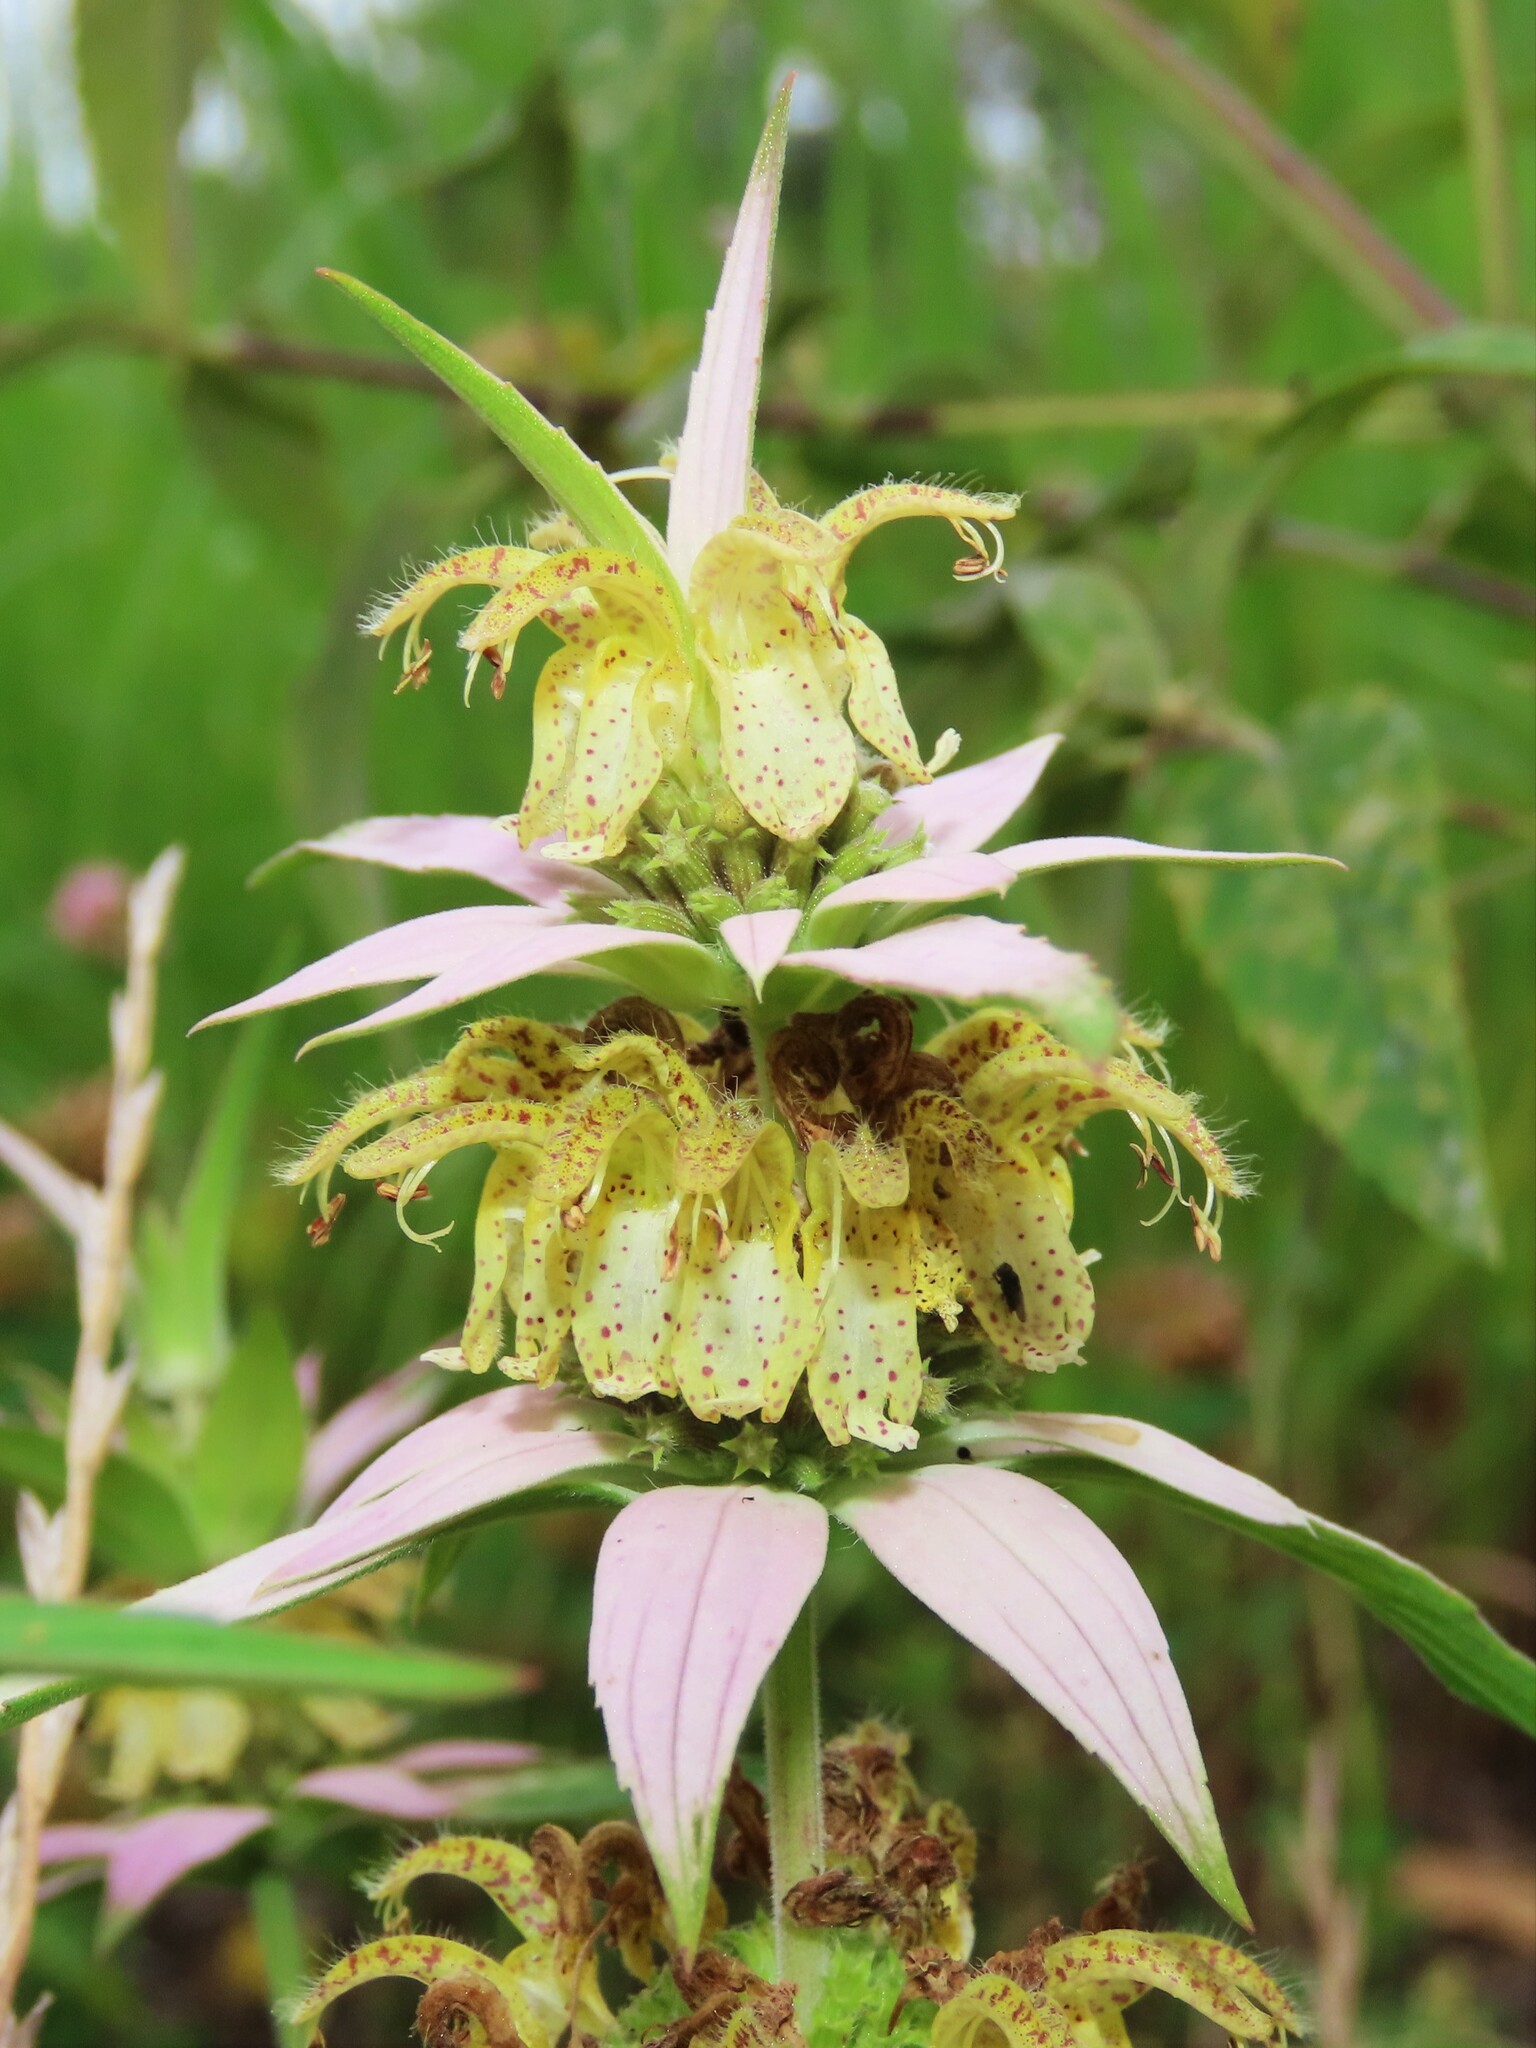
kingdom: Plantae
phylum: Tracheophyta
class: Magnoliopsida
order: Lamiales
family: Lamiaceae
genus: Monarda
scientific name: Monarda punctata
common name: Dotted monarda
